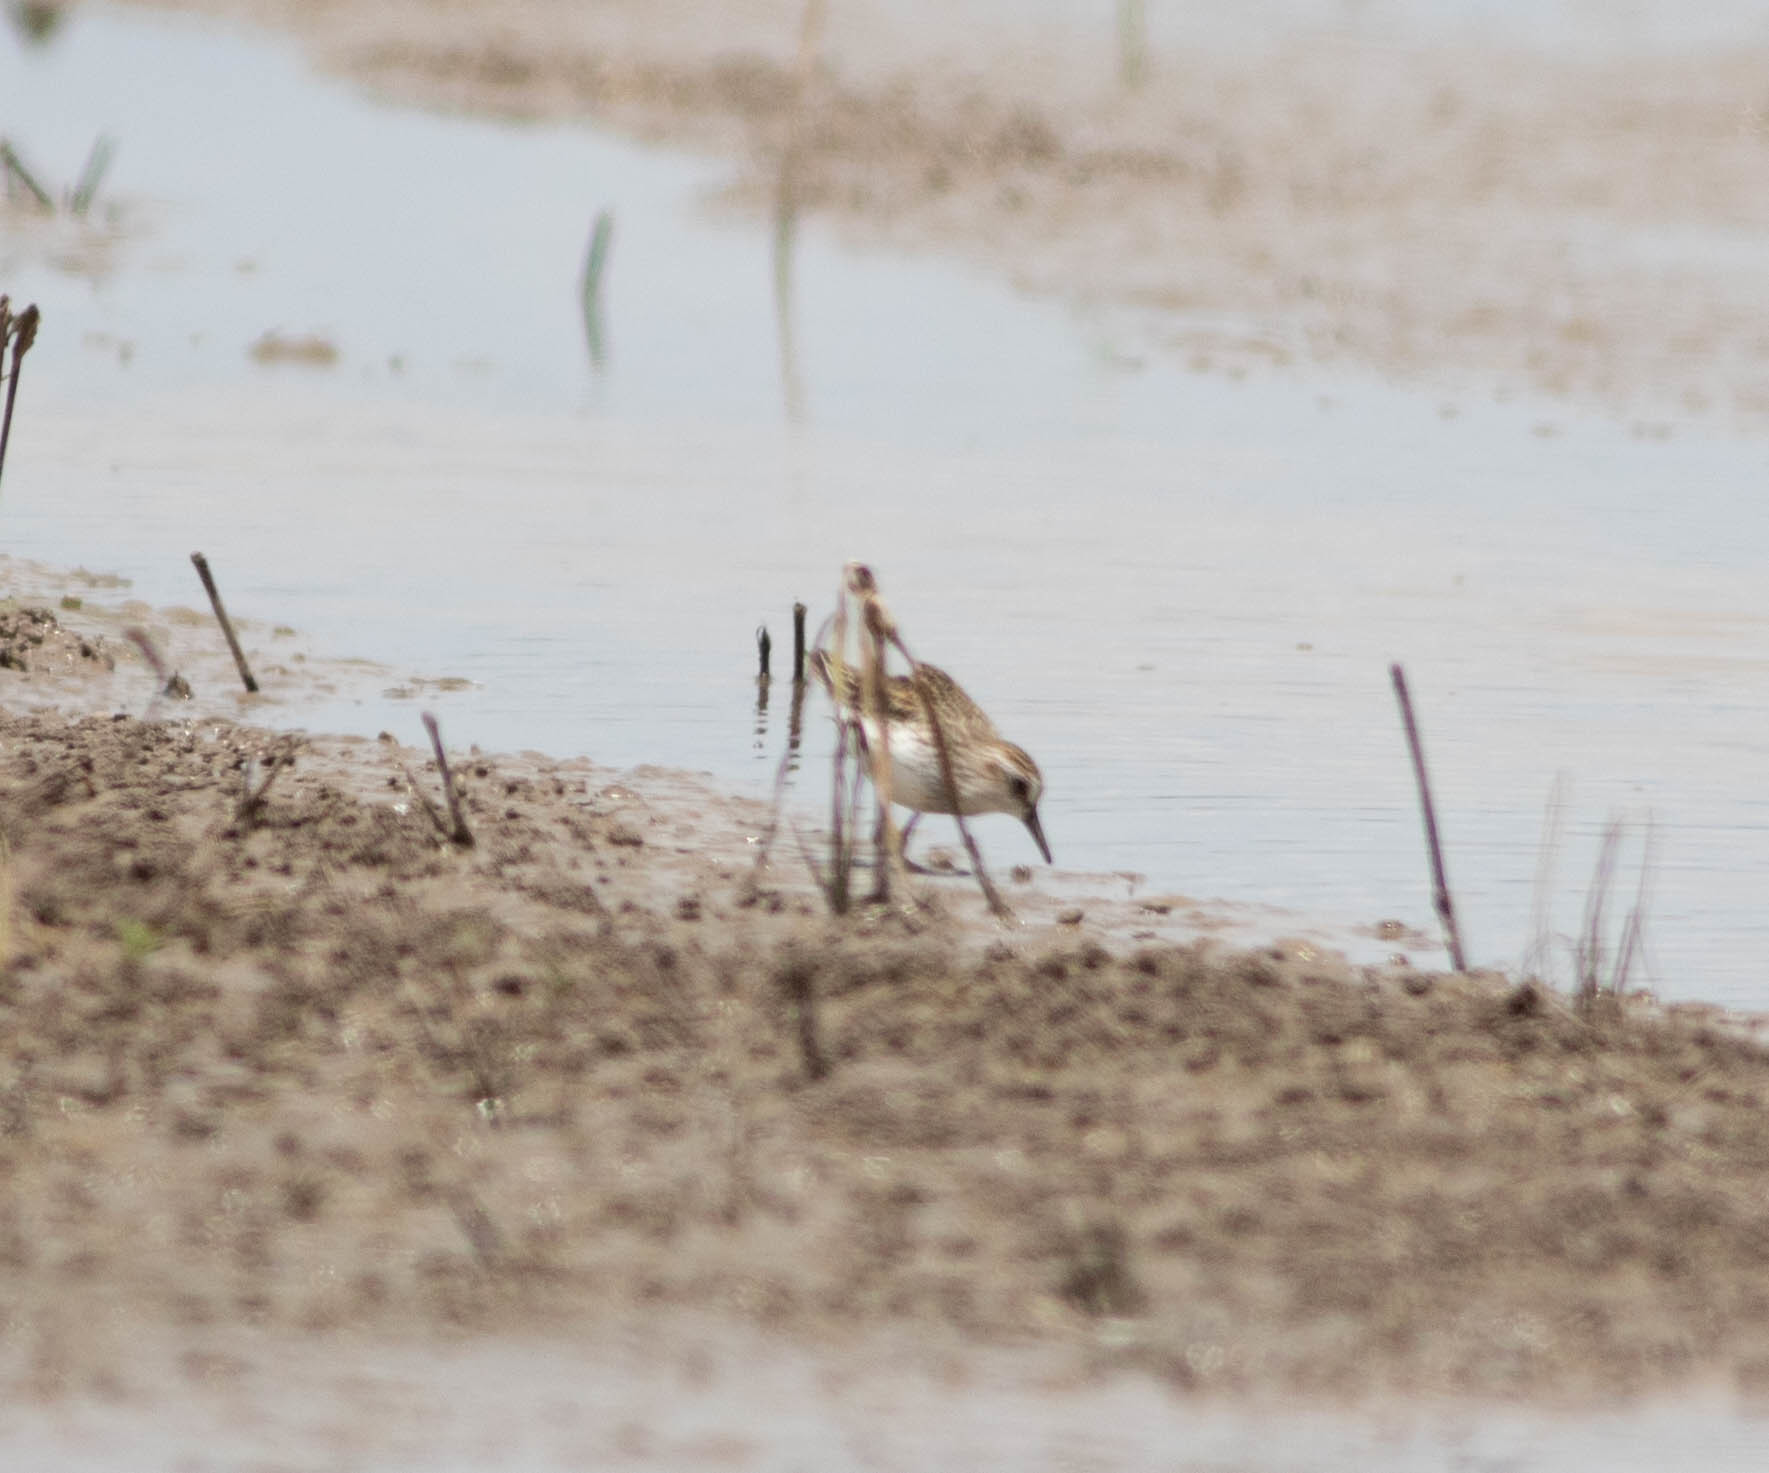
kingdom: Animalia
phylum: Chordata
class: Aves
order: Charadriiformes
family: Scolopacidae
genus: Calidris
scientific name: Calidris minutilla
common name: Least sandpiper
